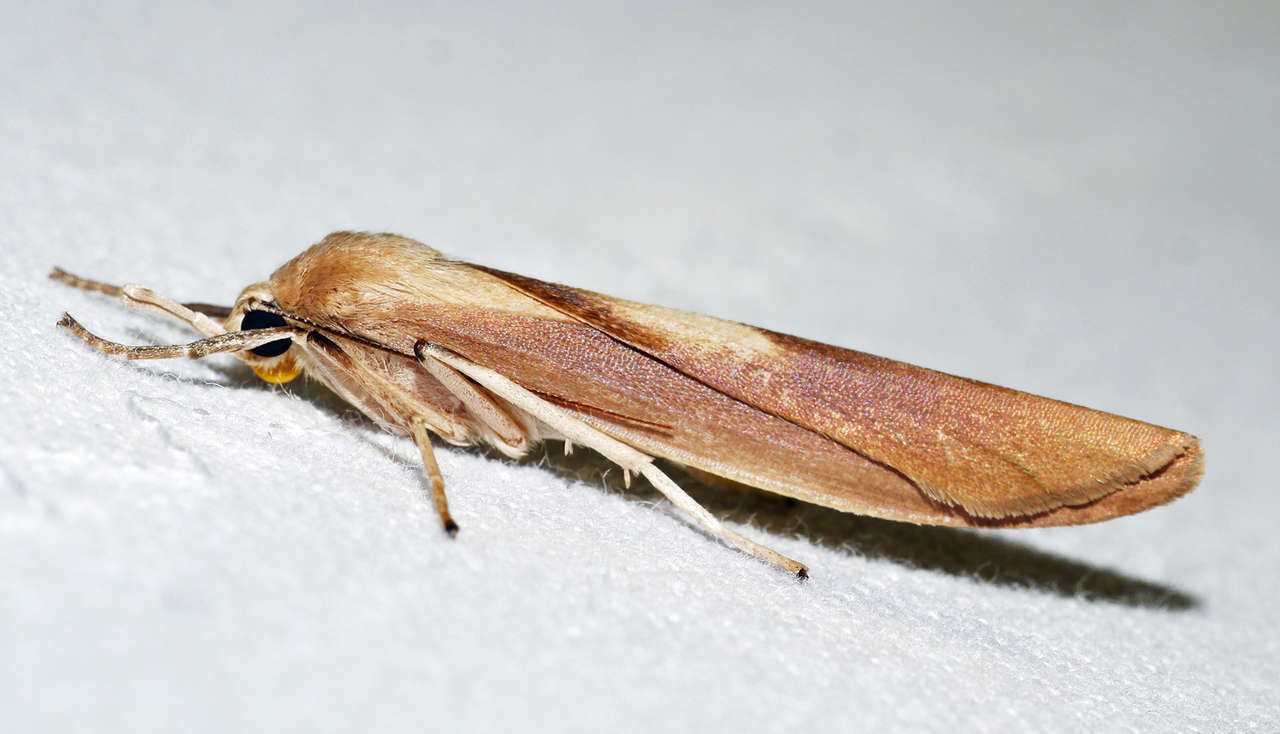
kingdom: Animalia
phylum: Arthropoda
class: Insecta
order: Lepidoptera
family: Erebidae
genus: Calamidia
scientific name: Calamidia hirta
